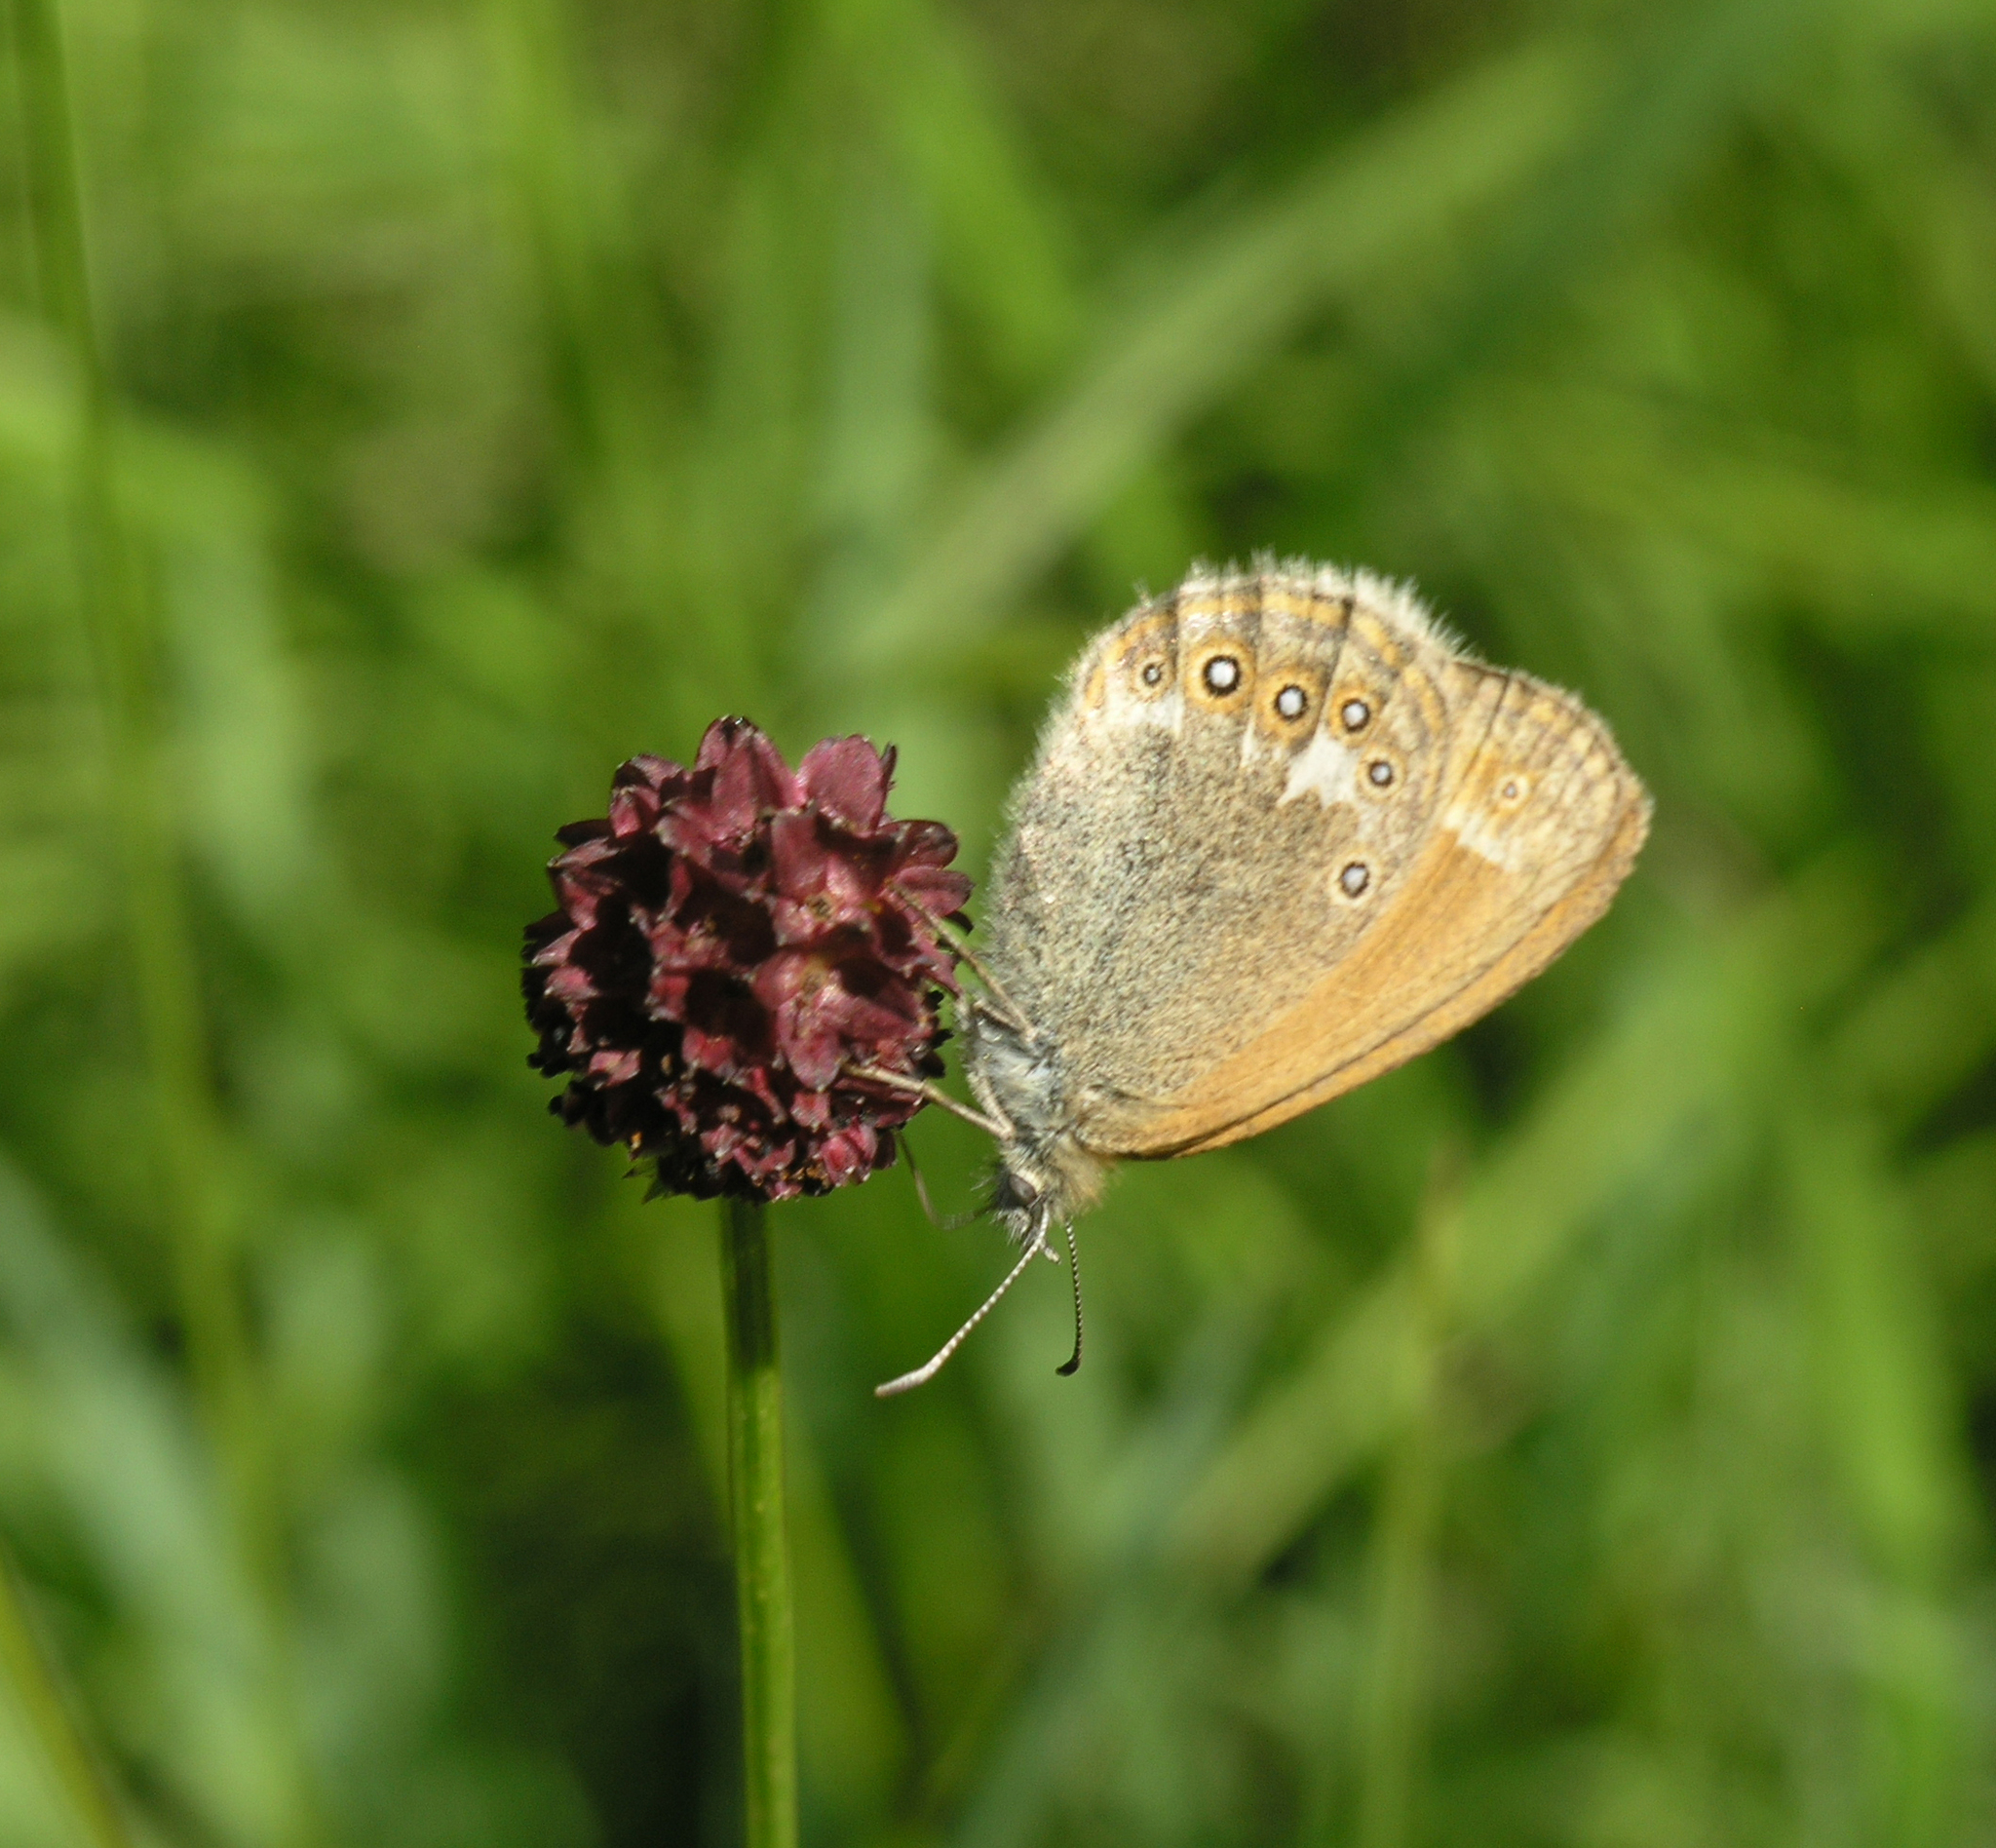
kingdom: Animalia
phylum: Arthropoda
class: Insecta
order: Lepidoptera
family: Nymphalidae
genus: Coenonympha
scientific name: Coenonympha iphis
